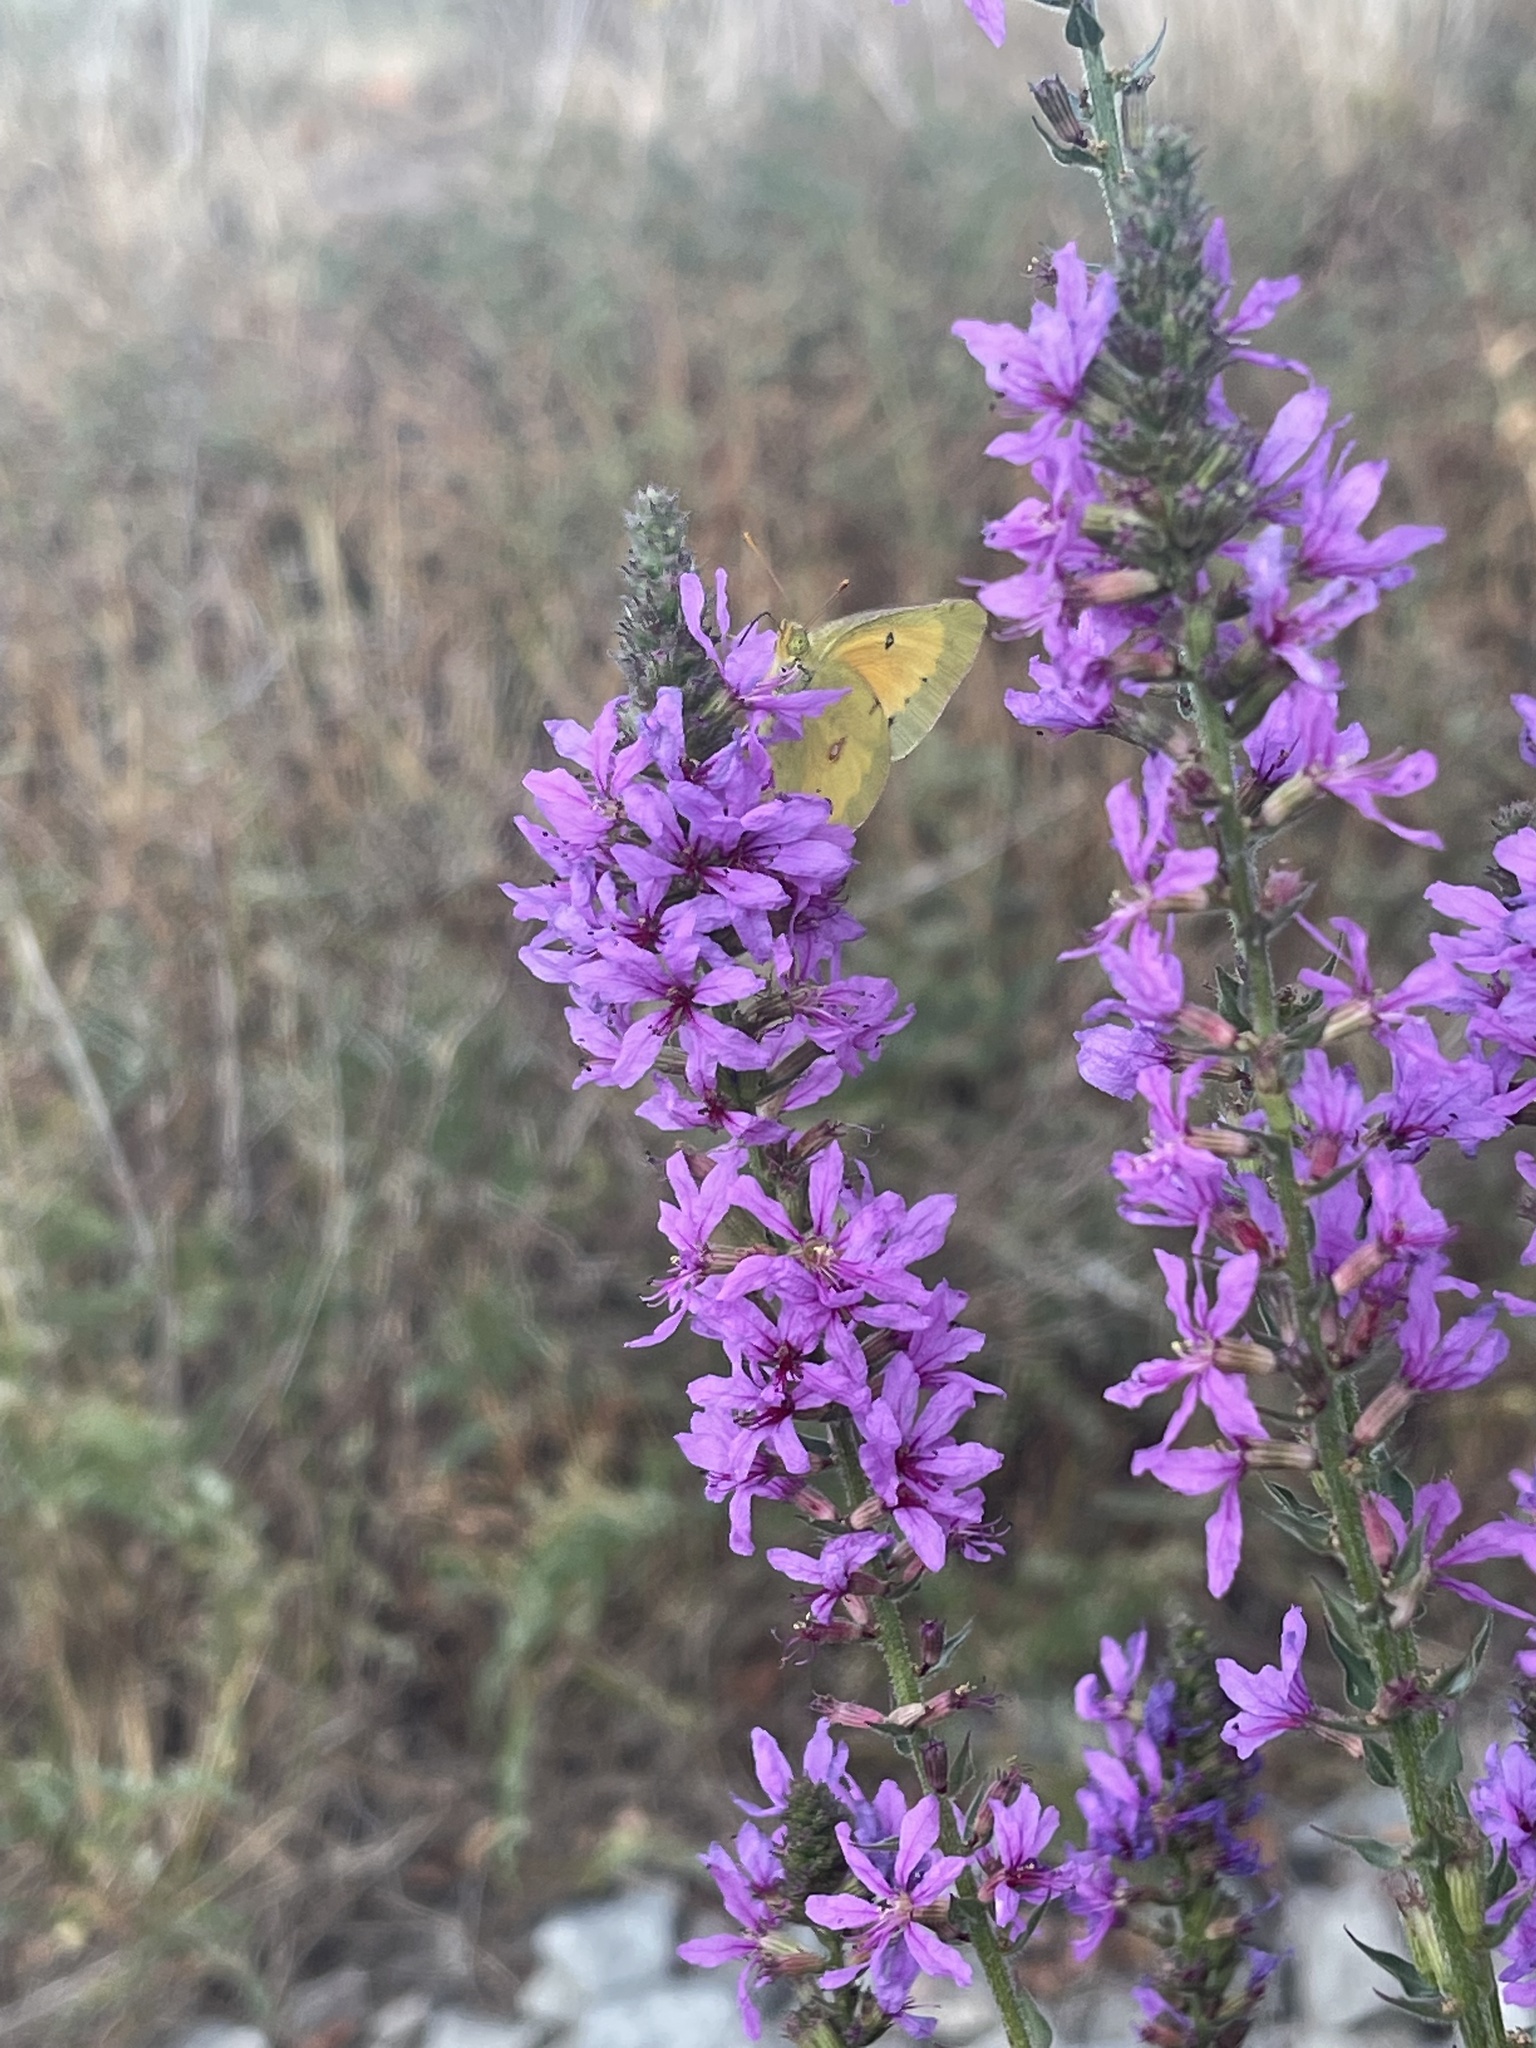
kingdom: Animalia
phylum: Arthropoda
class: Insecta
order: Lepidoptera
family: Pieridae
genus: Colias
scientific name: Colias eurytheme
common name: Alfalfa butterfly
